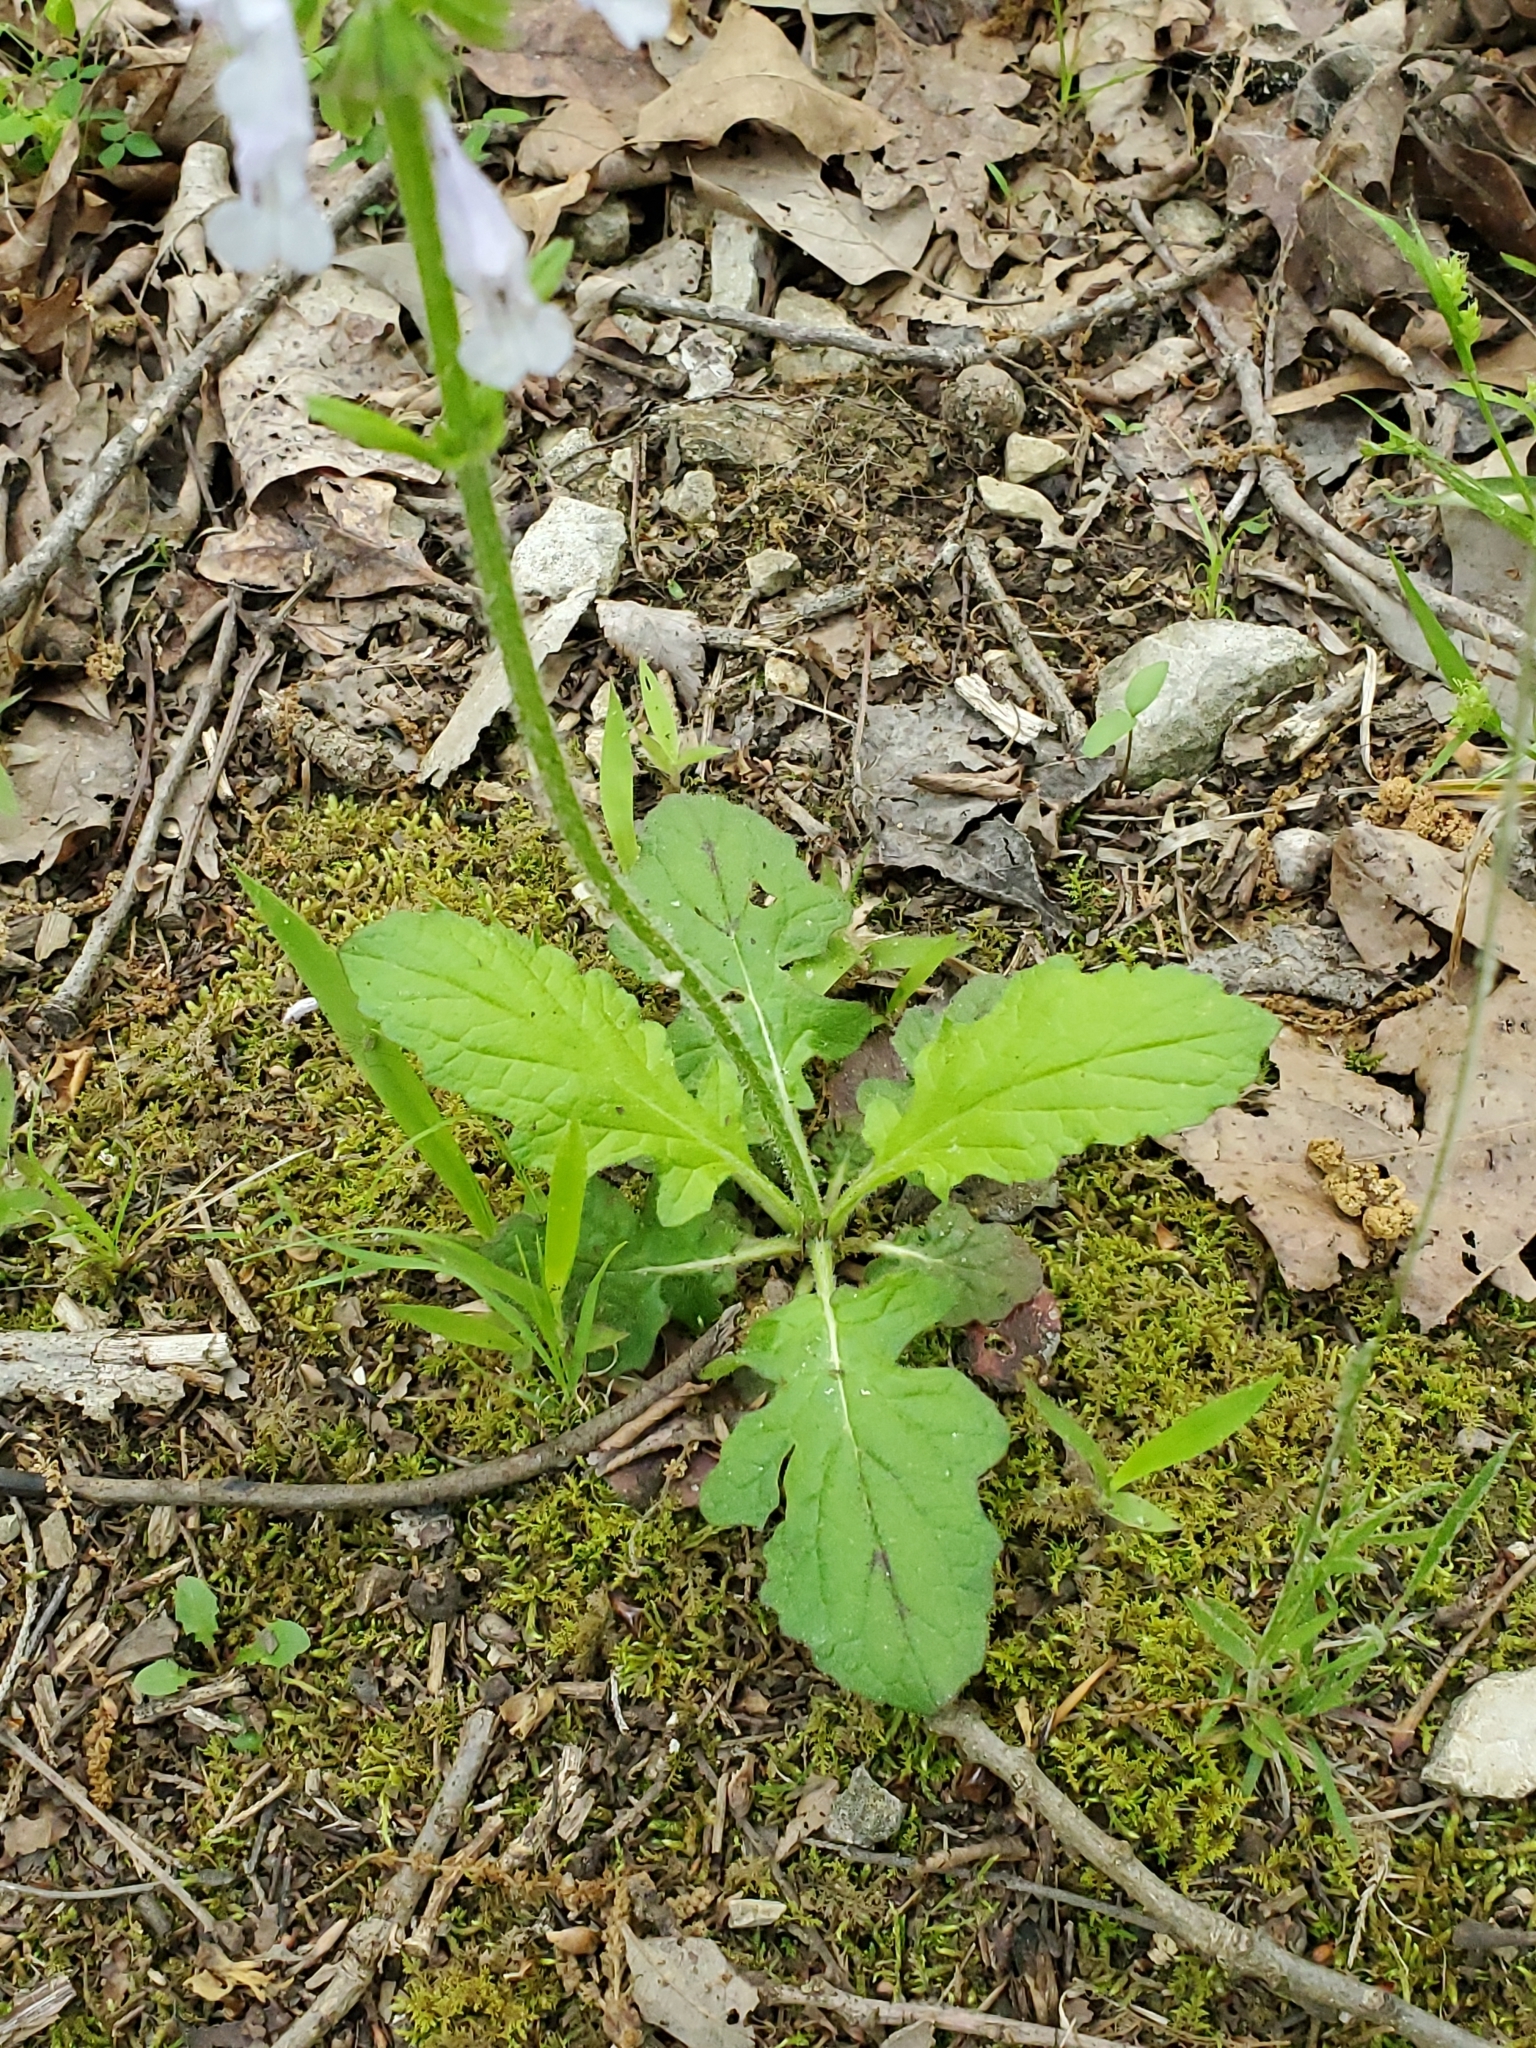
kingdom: Plantae
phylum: Tracheophyta
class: Magnoliopsida
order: Lamiales
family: Lamiaceae
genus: Salvia
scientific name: Salvia lyrata
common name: Cancerweed
